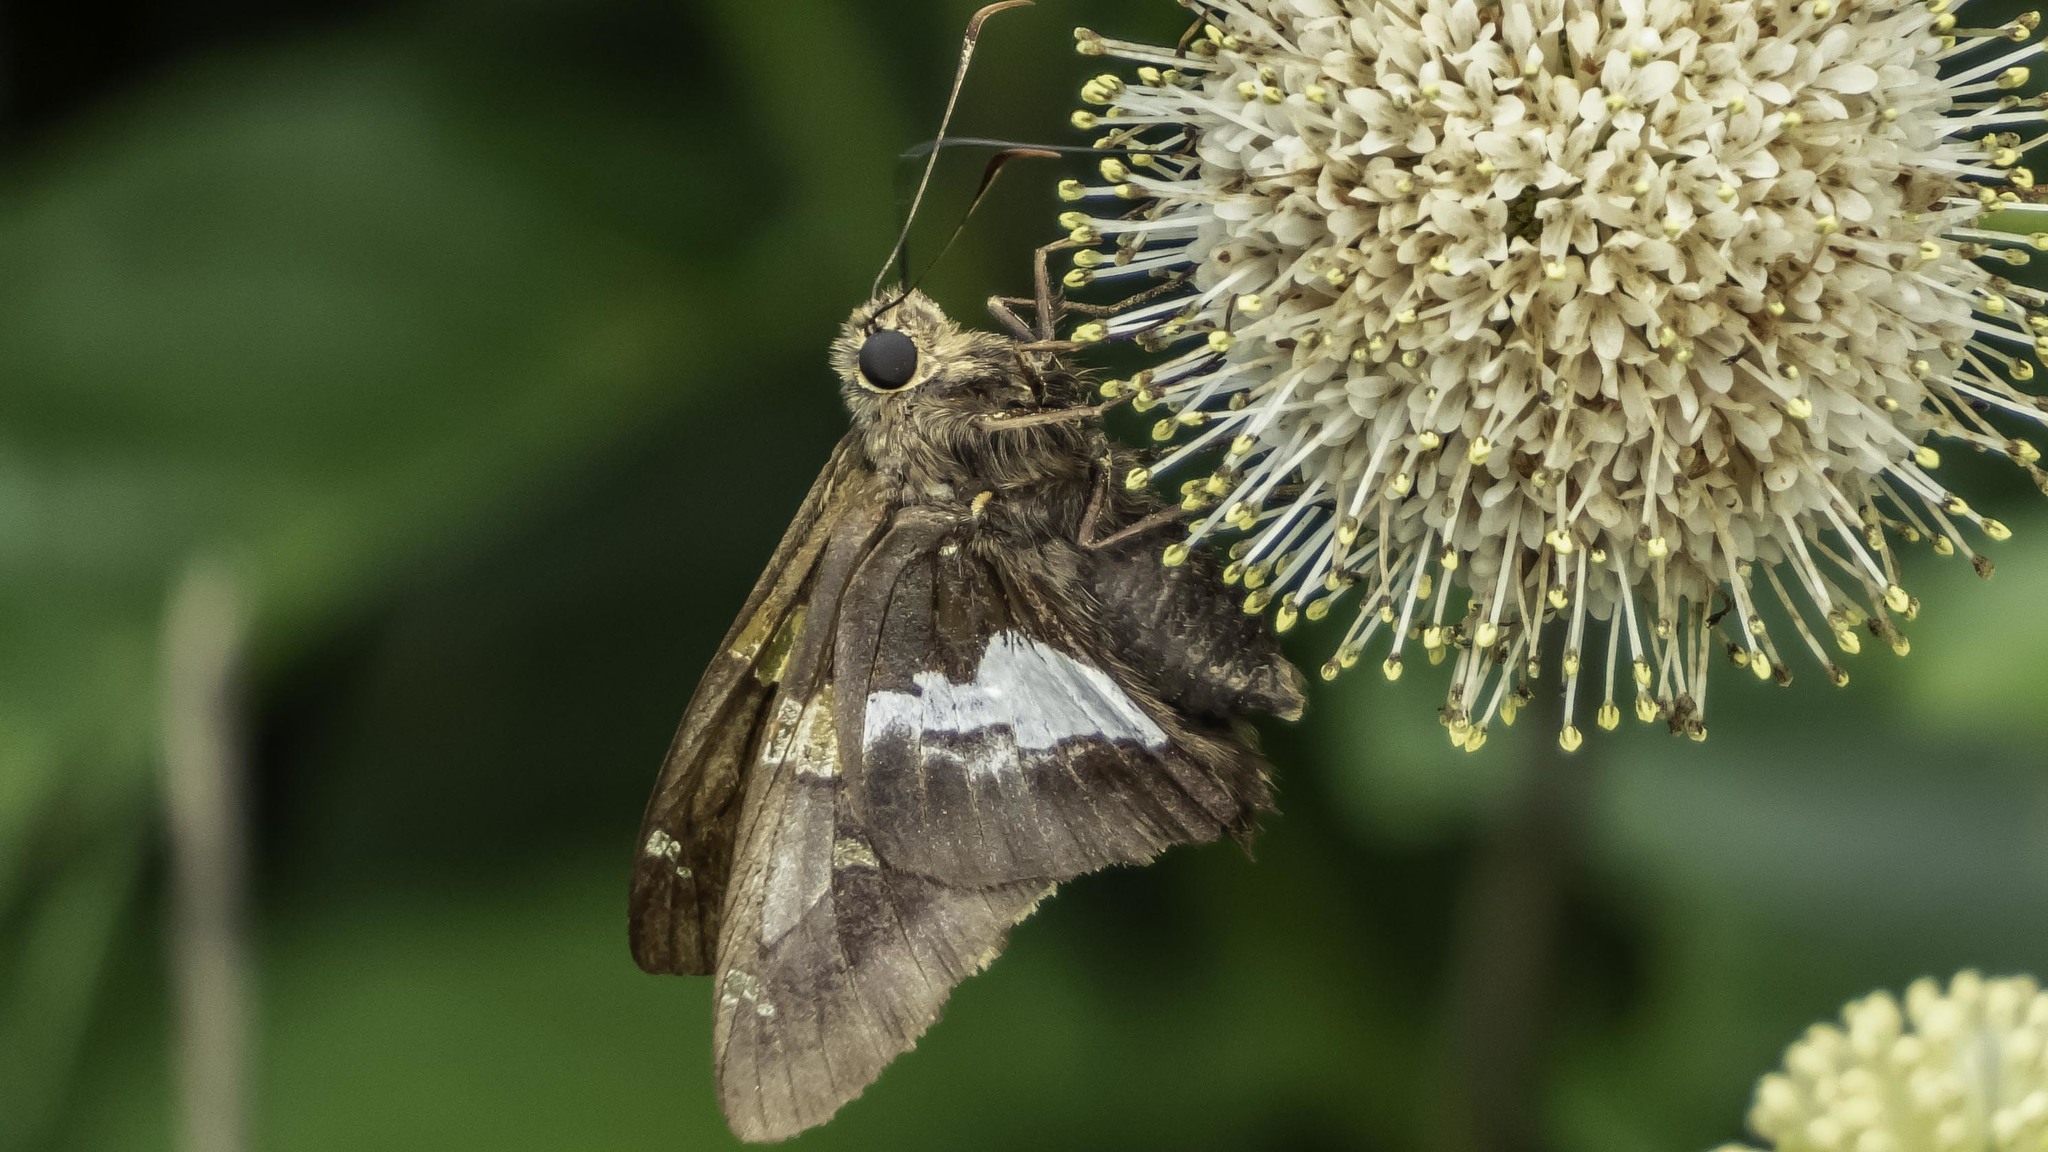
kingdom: Animalia
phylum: Arthropoda
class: Insecta
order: Lepidoptera
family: Hesperiidae
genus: Epargyreus
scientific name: Epargyreus clarus
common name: Silver-spotted skipper
